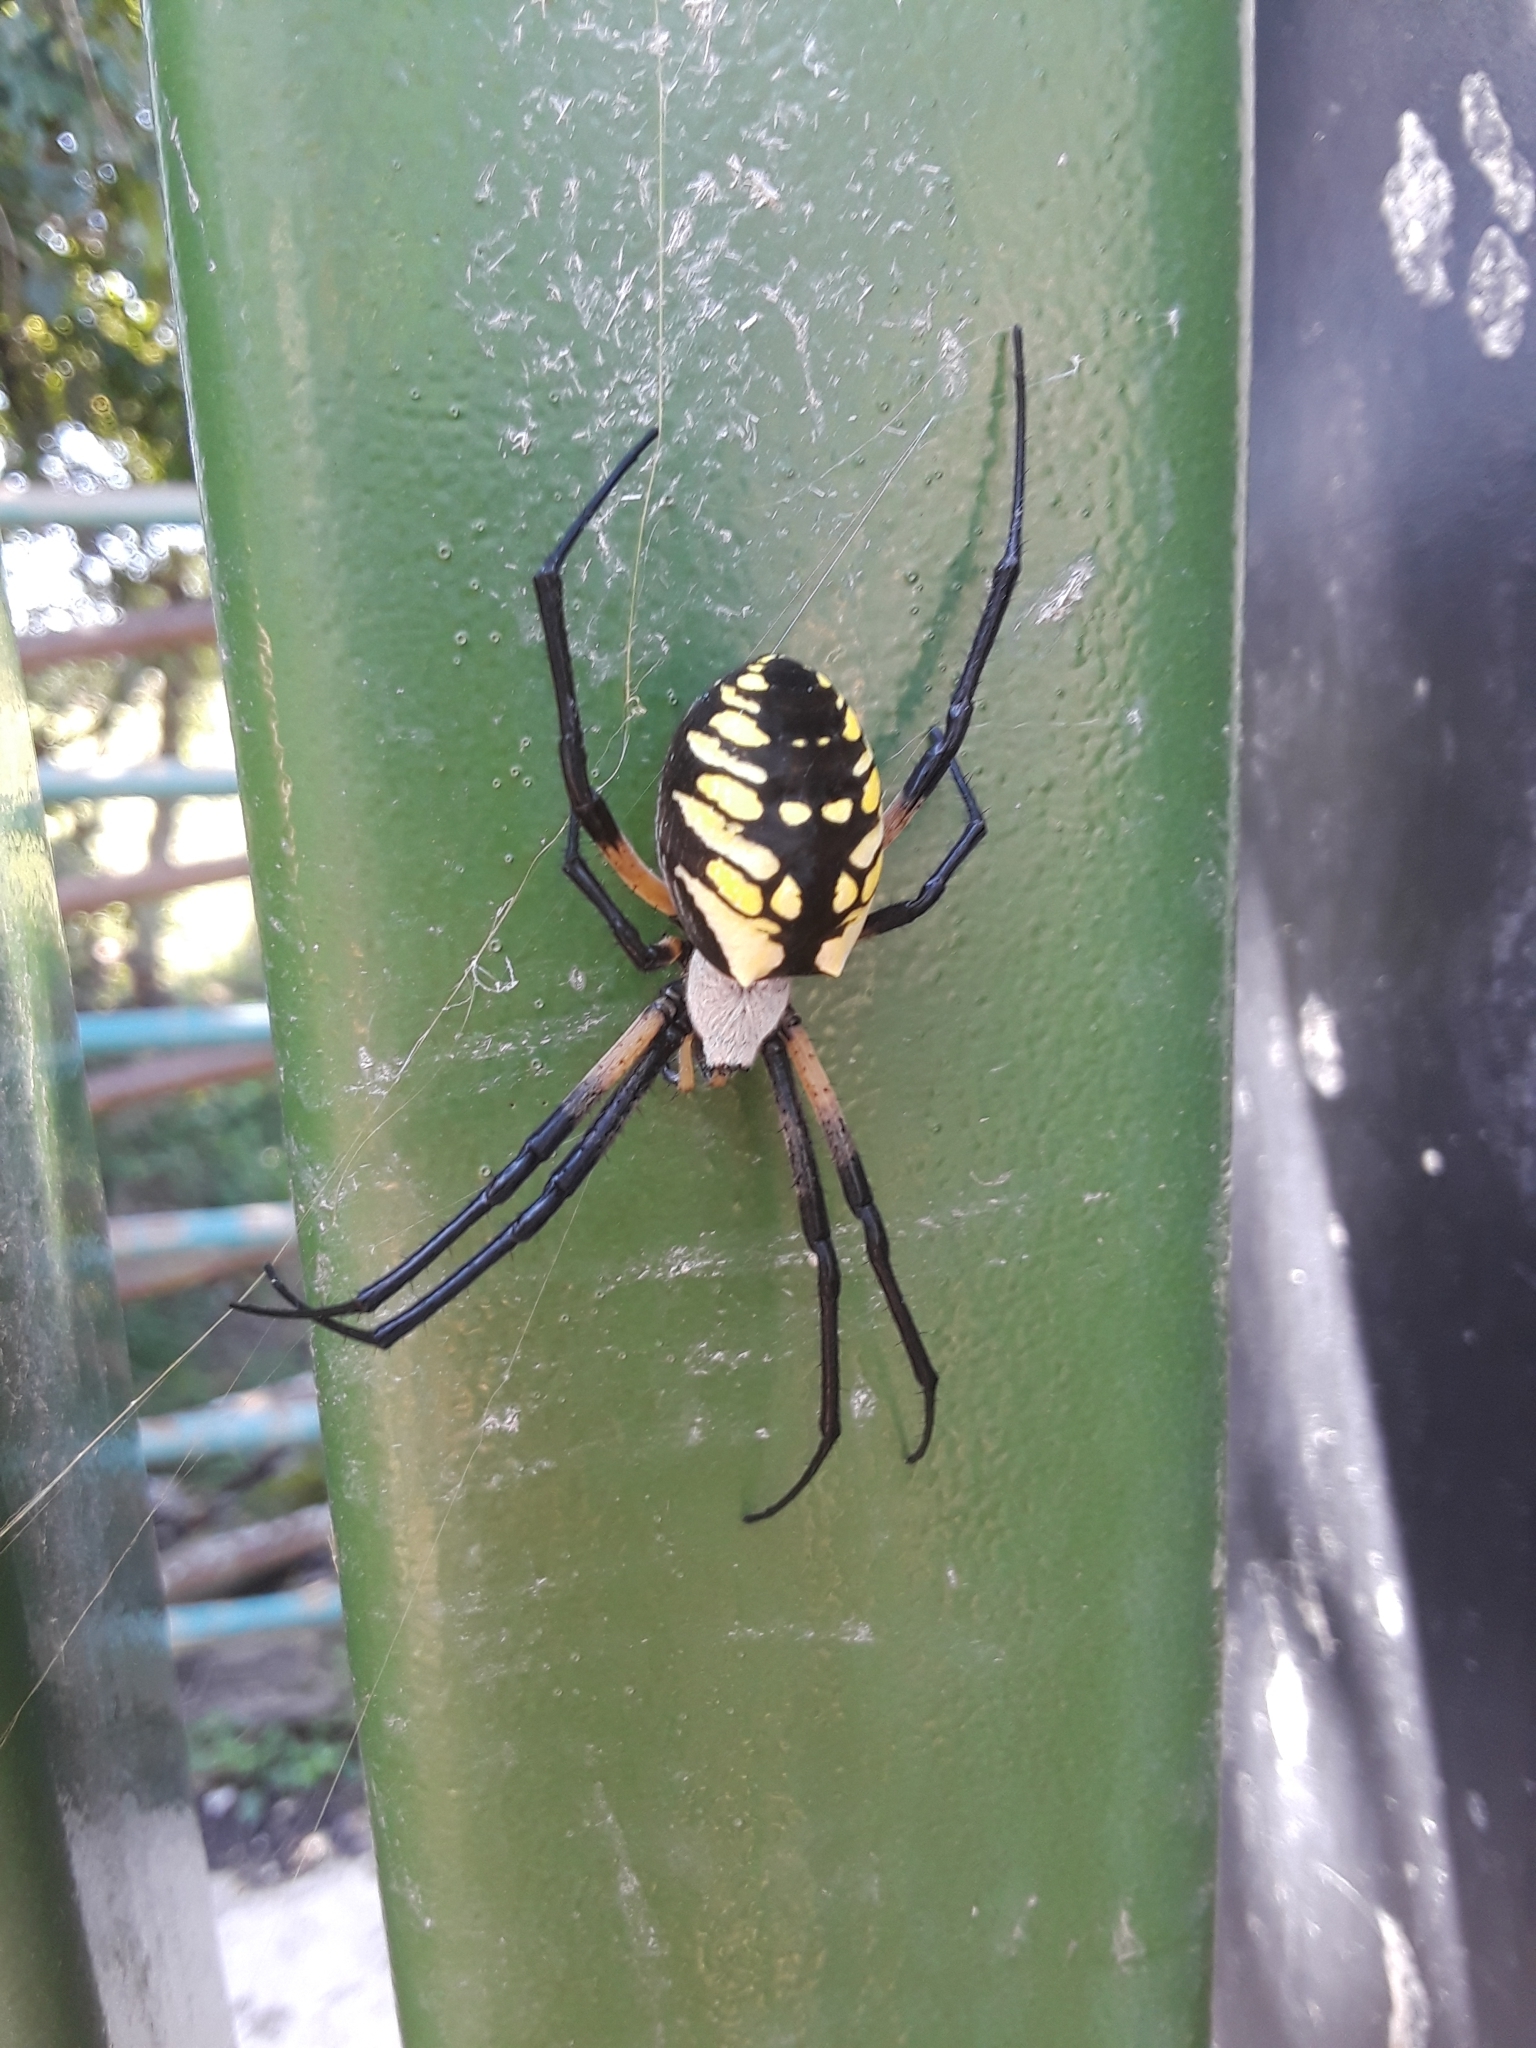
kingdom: Animalia
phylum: Arthropoda
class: Arachnida
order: Araneae
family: Araneidae
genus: Argiope
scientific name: Argiope aurantia
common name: Orb weavers
